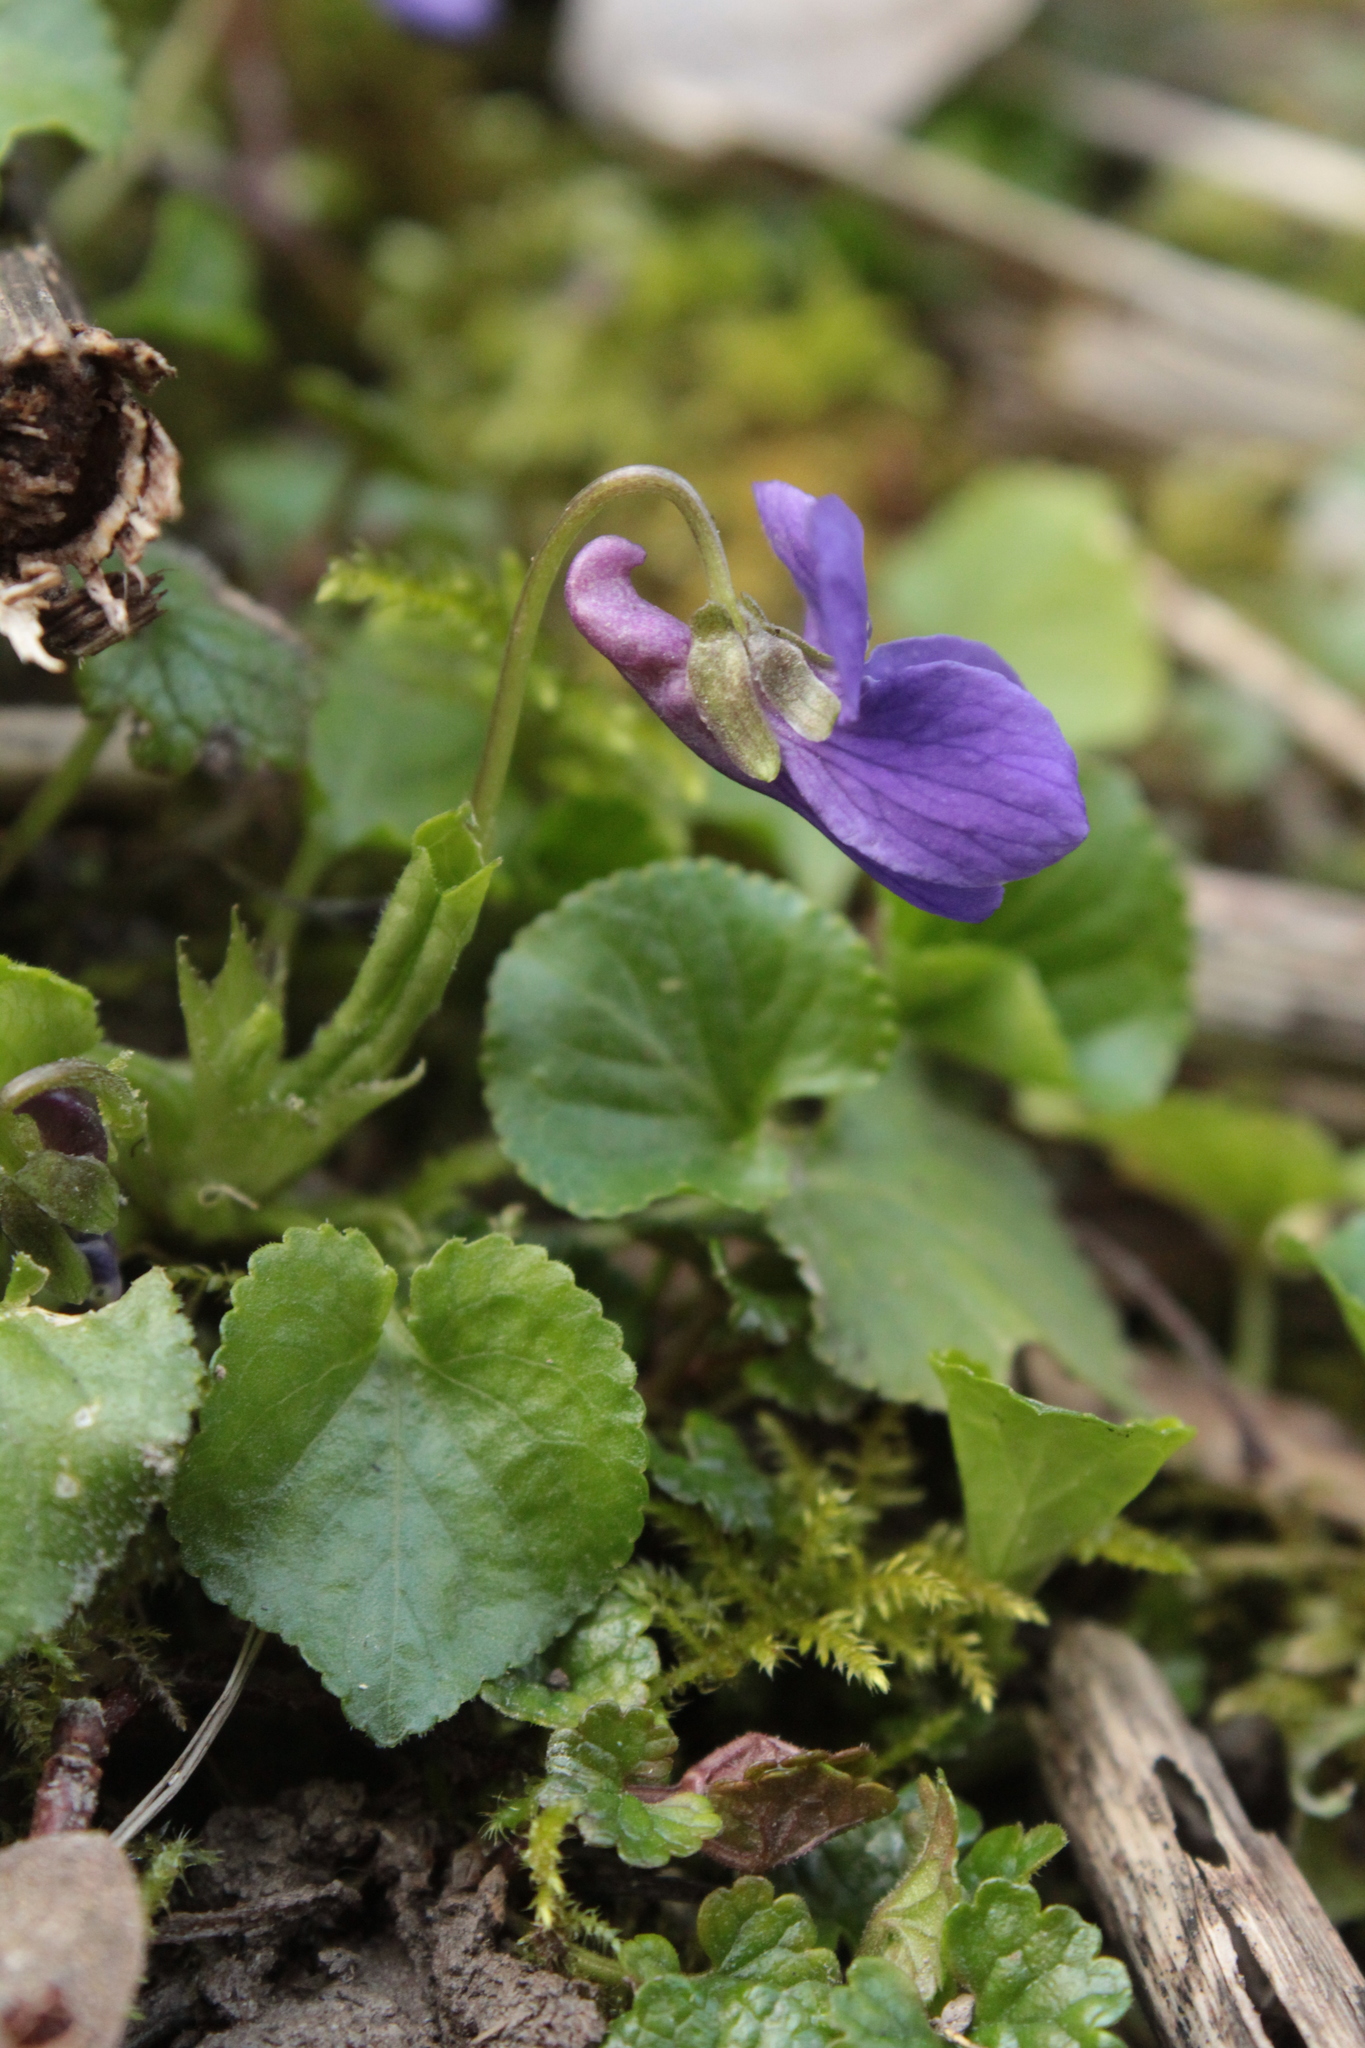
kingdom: Plantae
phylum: Tracheophyta
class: Magnoliopsida
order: Malpighiales
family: Violaceae
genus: Viola
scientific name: Viola odorata
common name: Sweet violet
